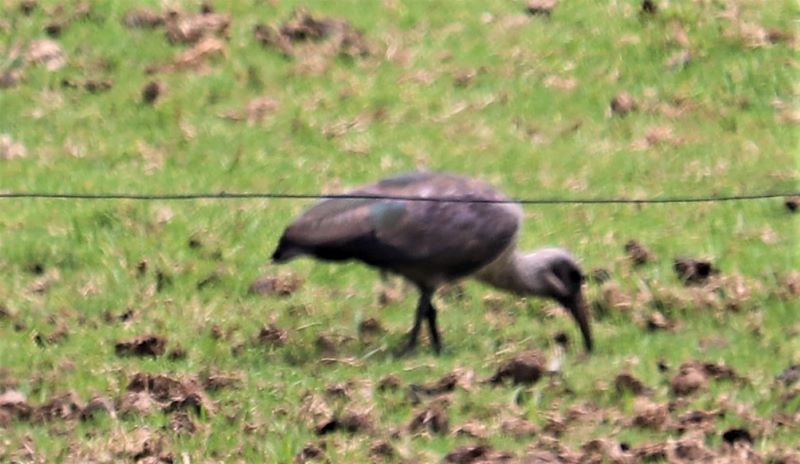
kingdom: Animalia
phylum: Chordata
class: Aves
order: Pelecaniformes
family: Threskiornithidae
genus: Bostrychia
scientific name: Bostrychia hagedash
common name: Hadada ibis
